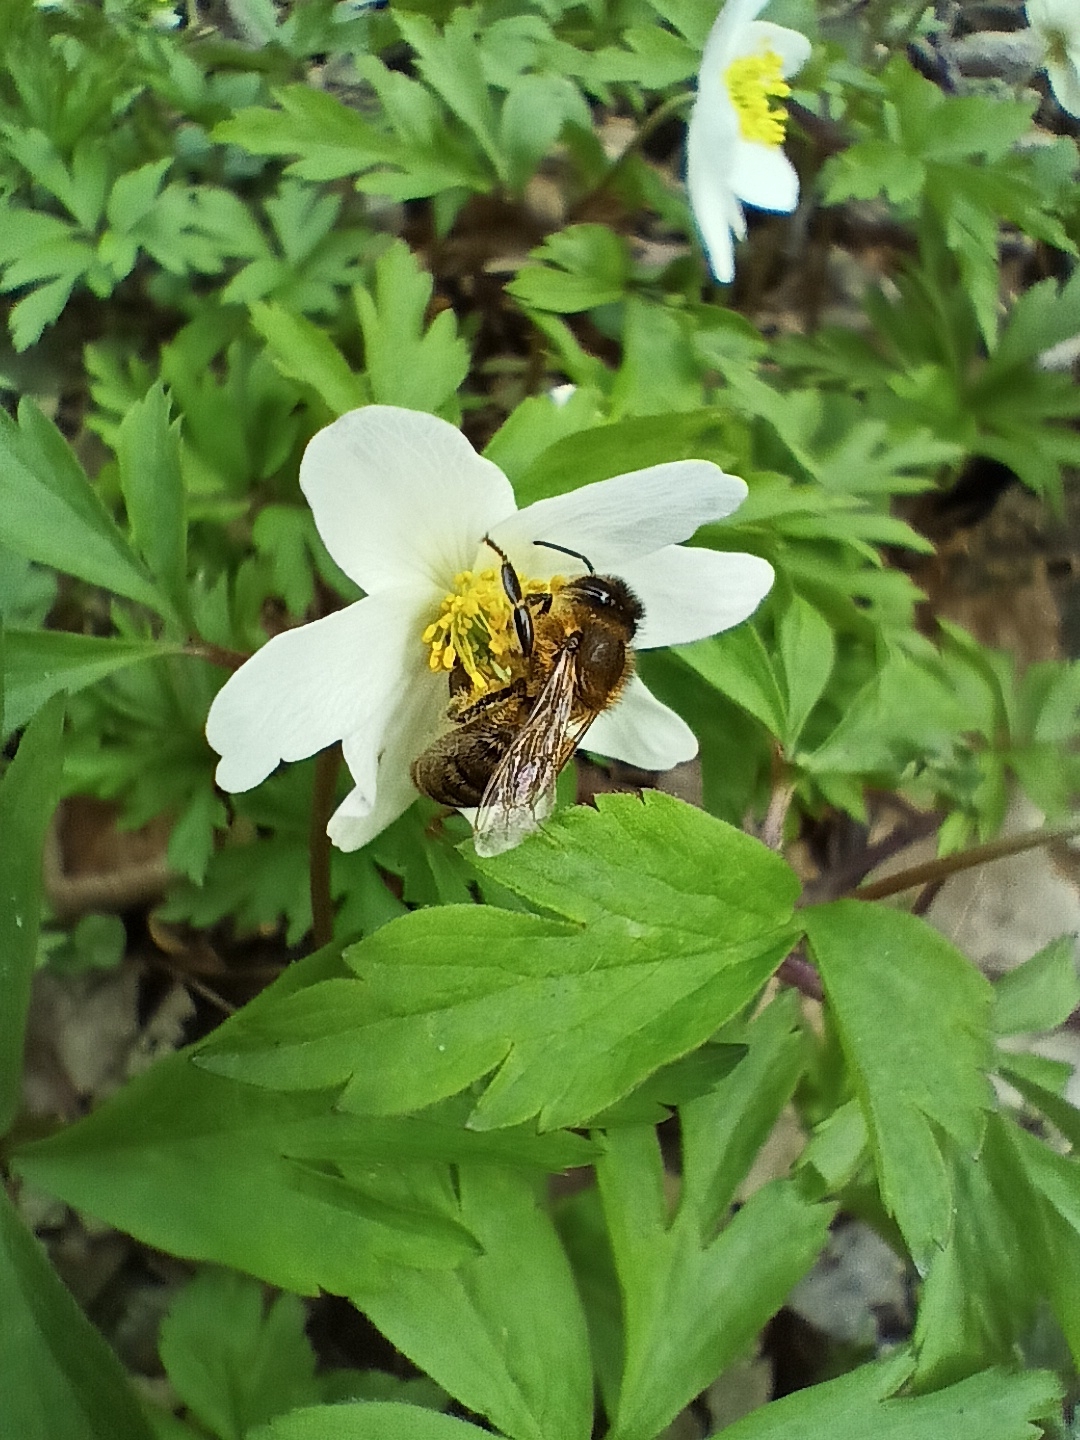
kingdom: Animalia
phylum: Arthropoda
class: Insecta
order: Hymenoptera
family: Apidae
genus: Apis
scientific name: Apis mellifera
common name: Honey bee
